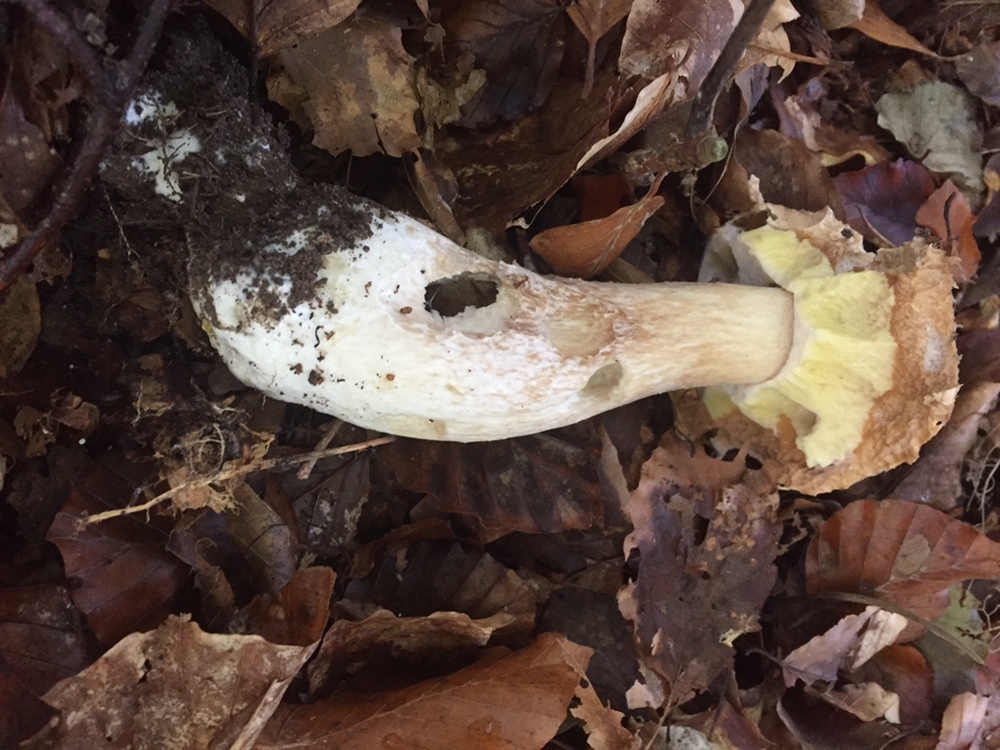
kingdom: Fungi
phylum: Basidiomycota
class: Agaricomycetes
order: Boletales
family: Boletaceae
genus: Boletus
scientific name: Boletus edulis
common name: Cep
